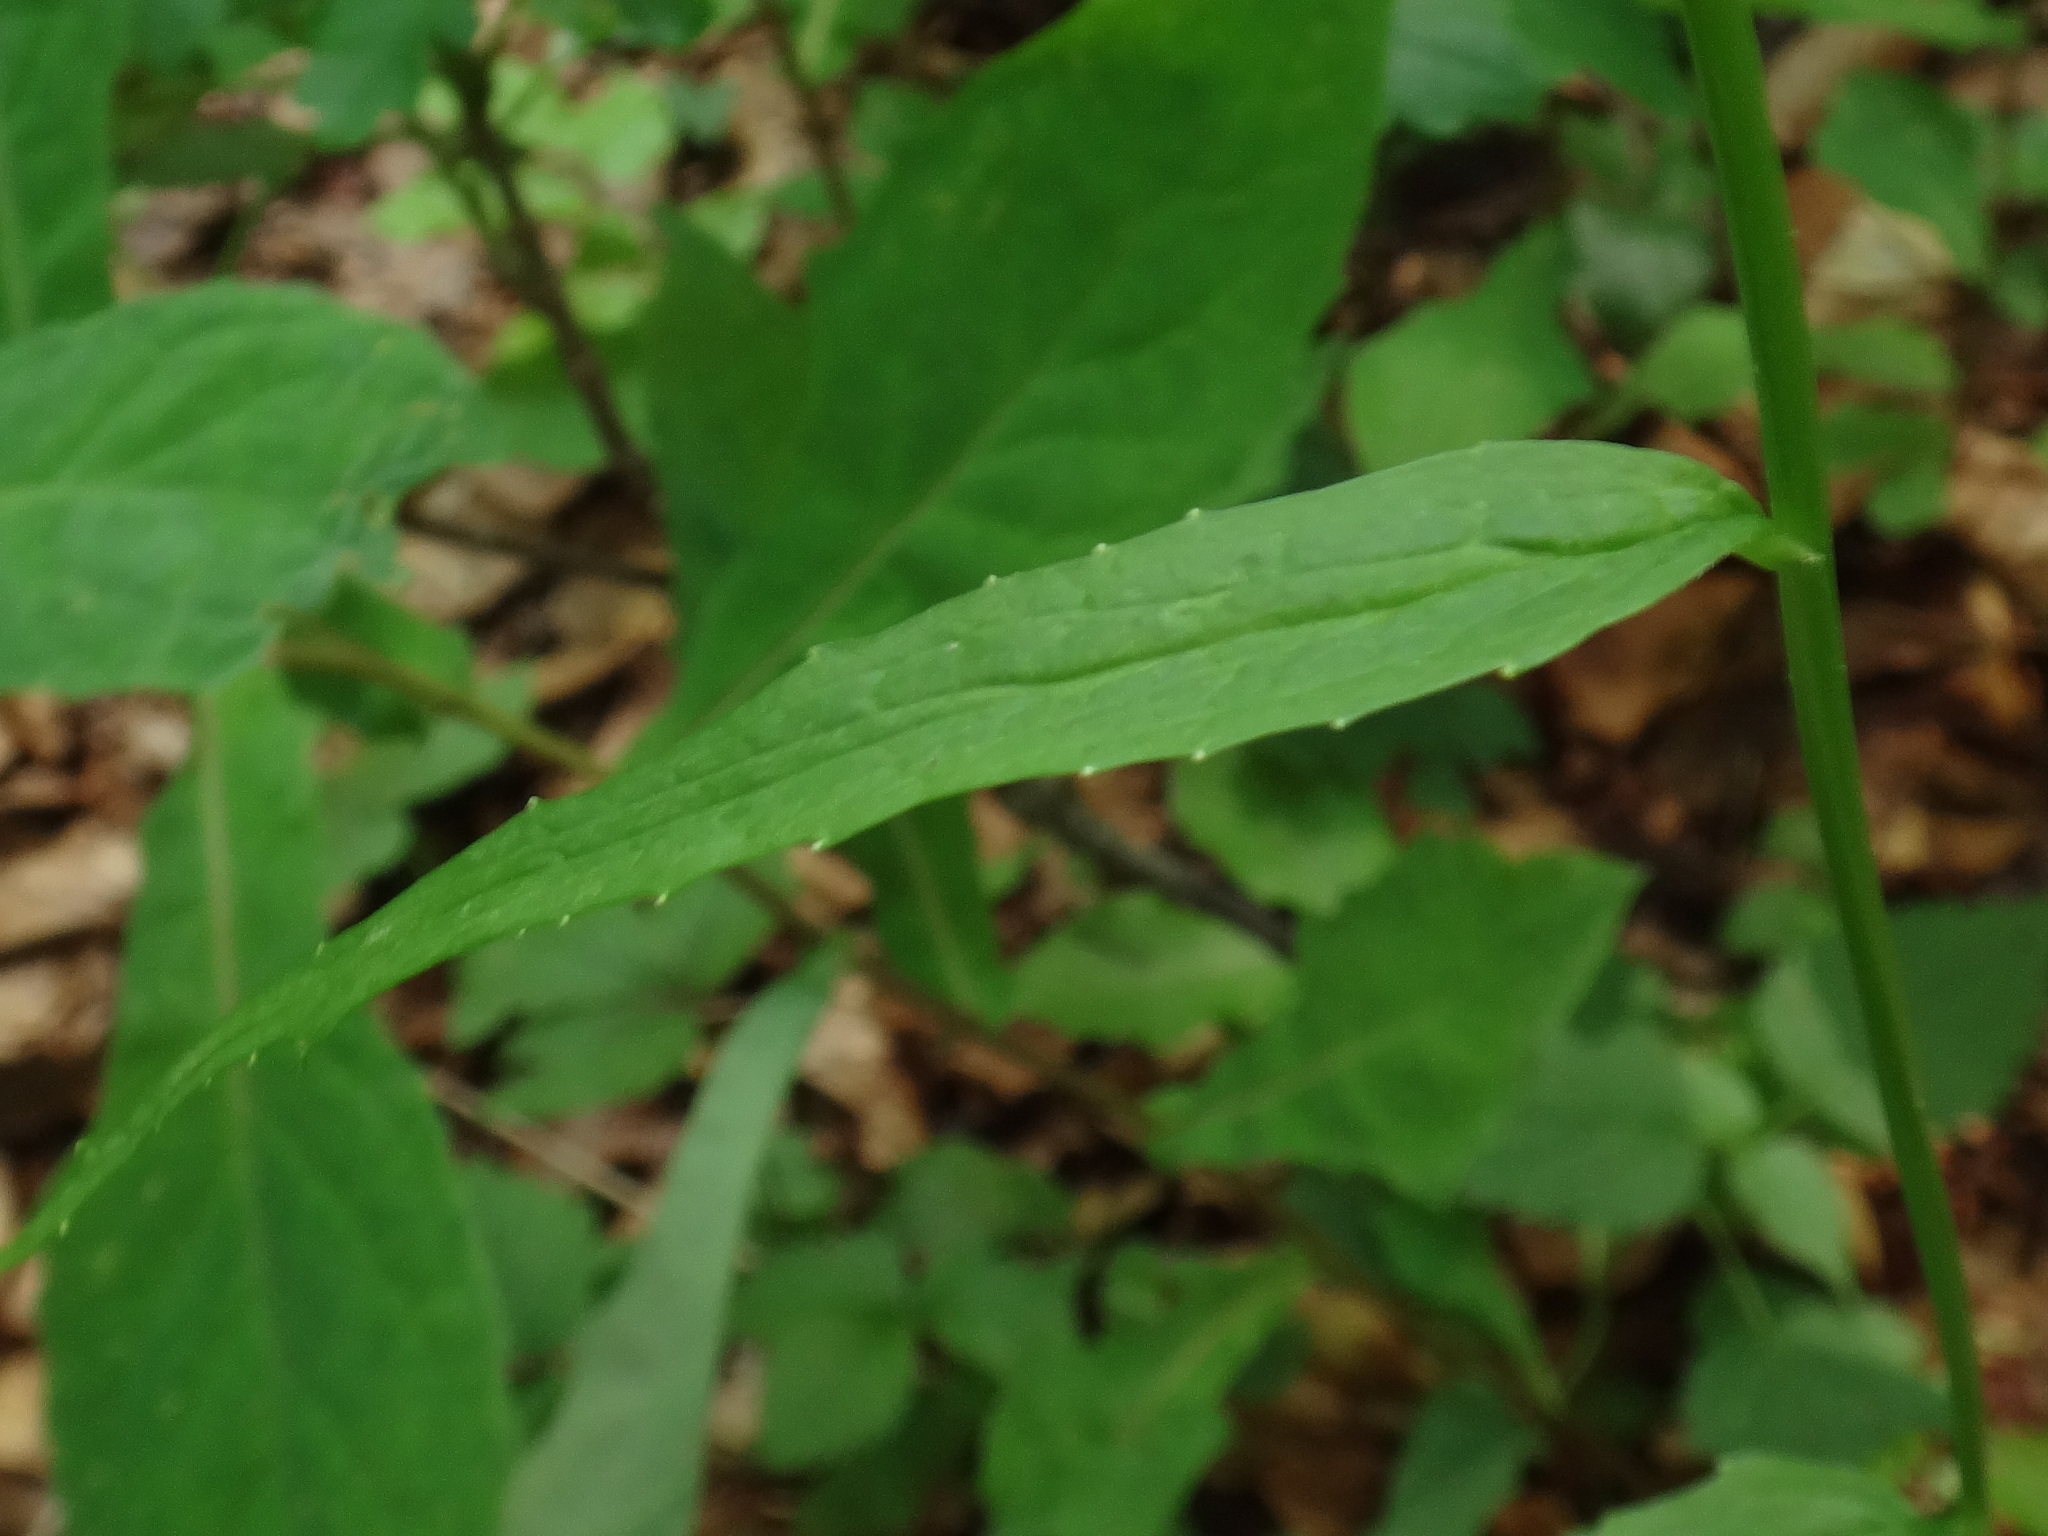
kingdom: Plantae
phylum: Tracheophyta
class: Magnoliopsida
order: Asterales
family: Campanulaceae
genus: Phyteuma
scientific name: Phyteuma spicatum
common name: Spiked rampion
